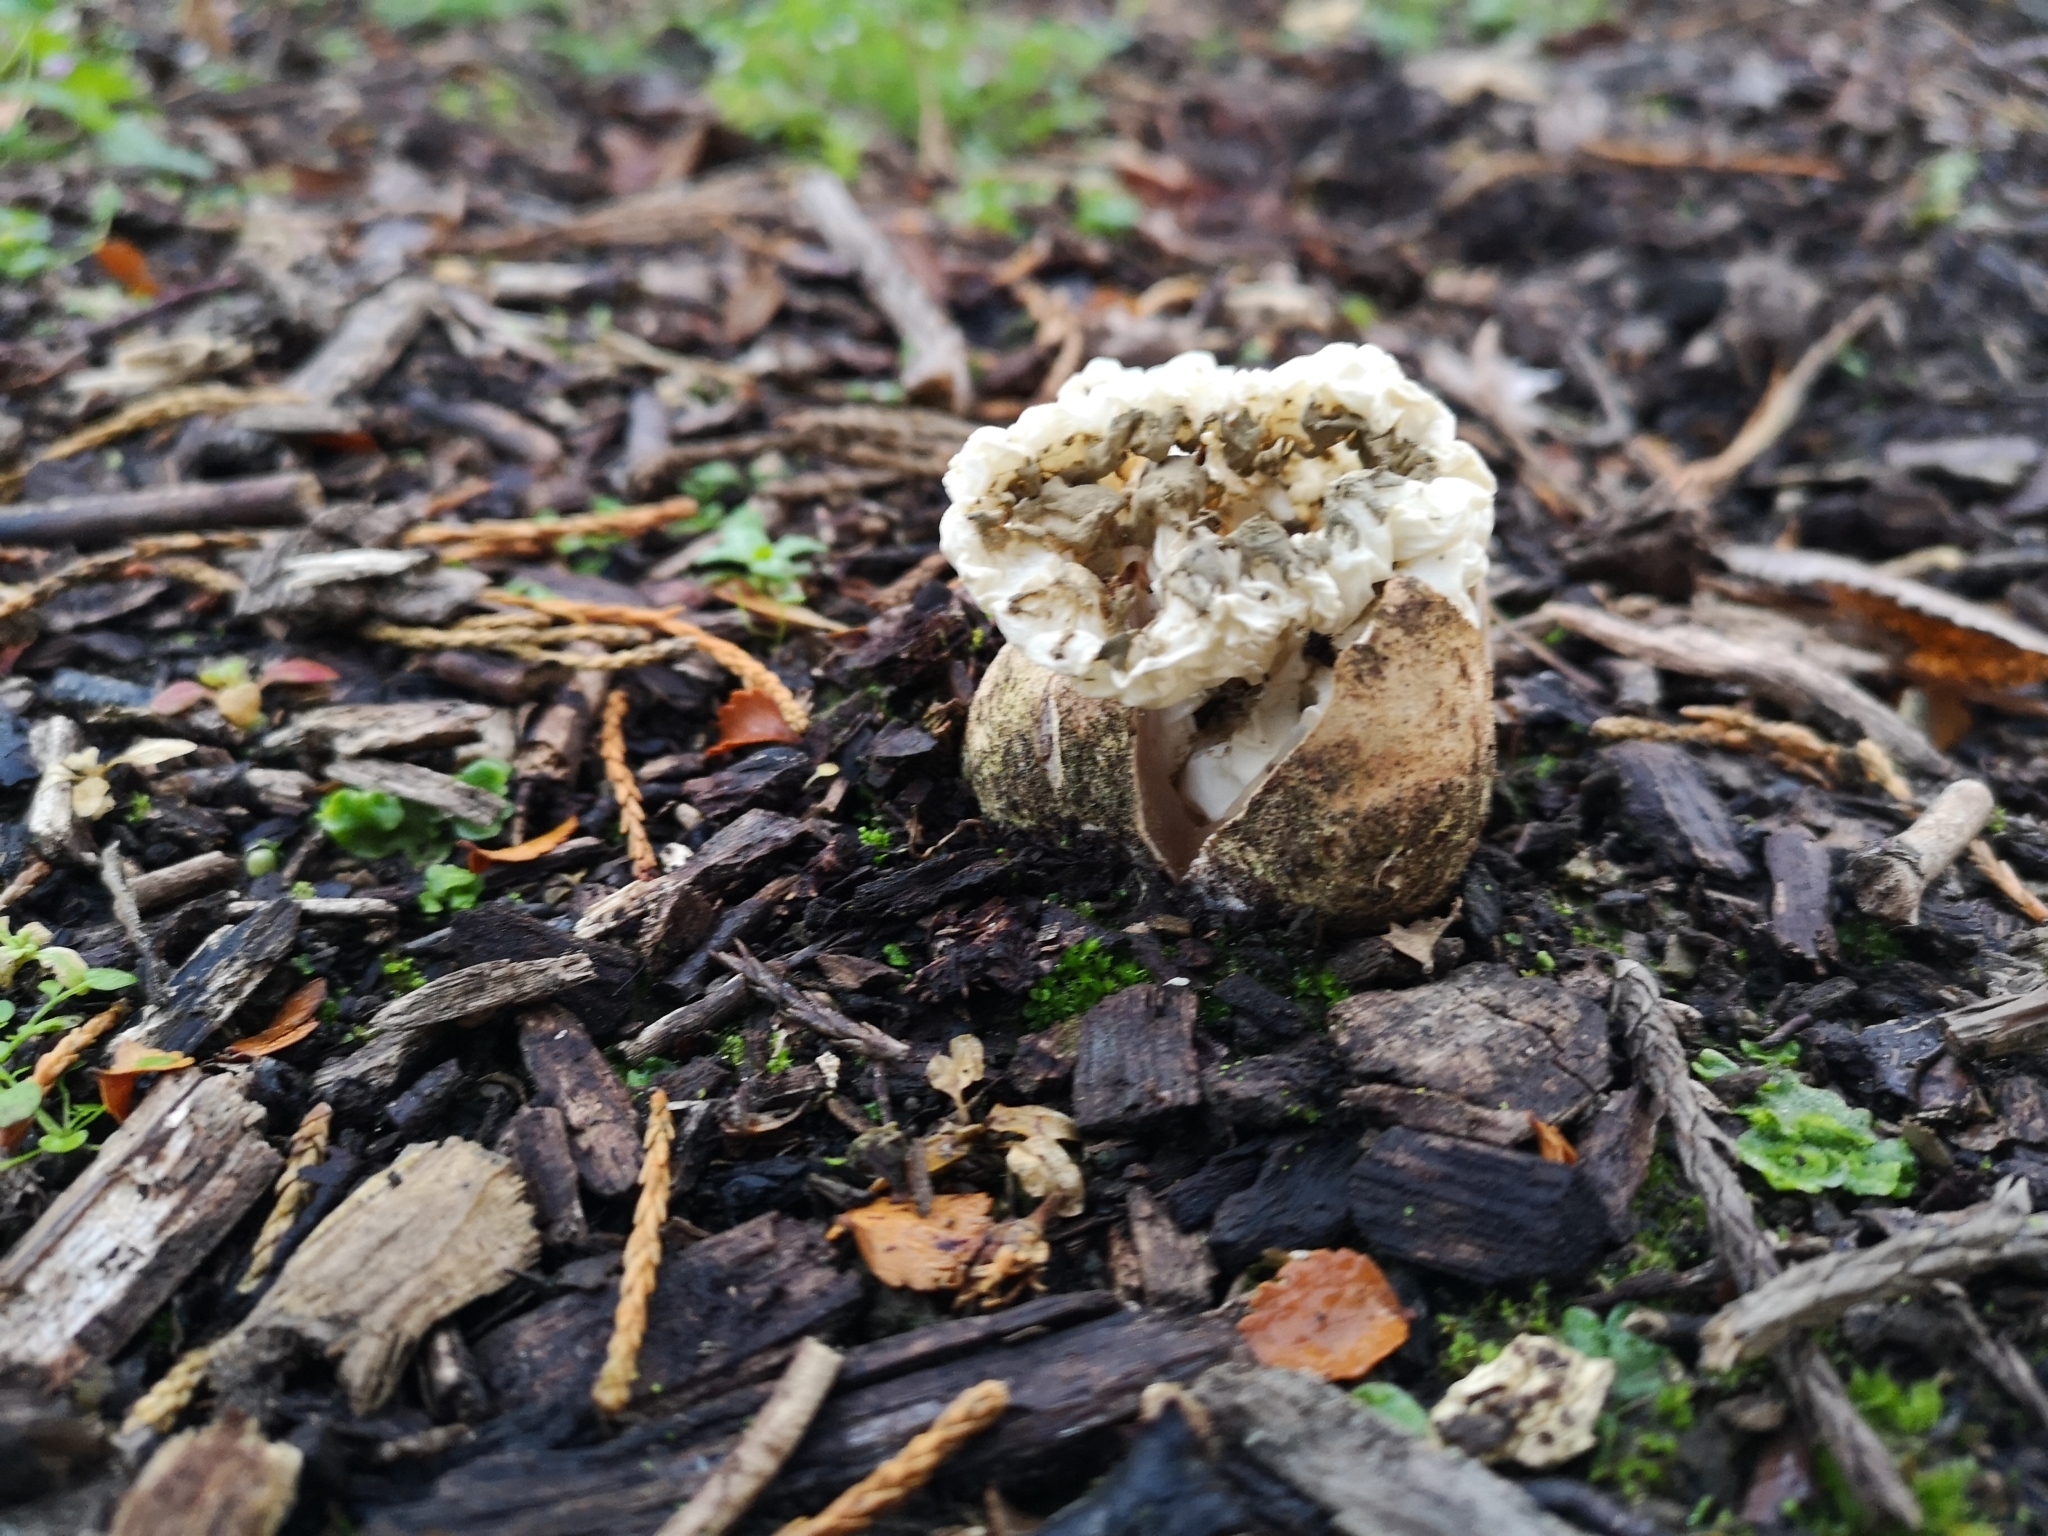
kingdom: Fungi
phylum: Basidiomycota
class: Agaricomycetes
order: Phallales
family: Phallaceae
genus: Ileodictyon
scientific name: Ileodictyon cibarium
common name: Basket fungus
